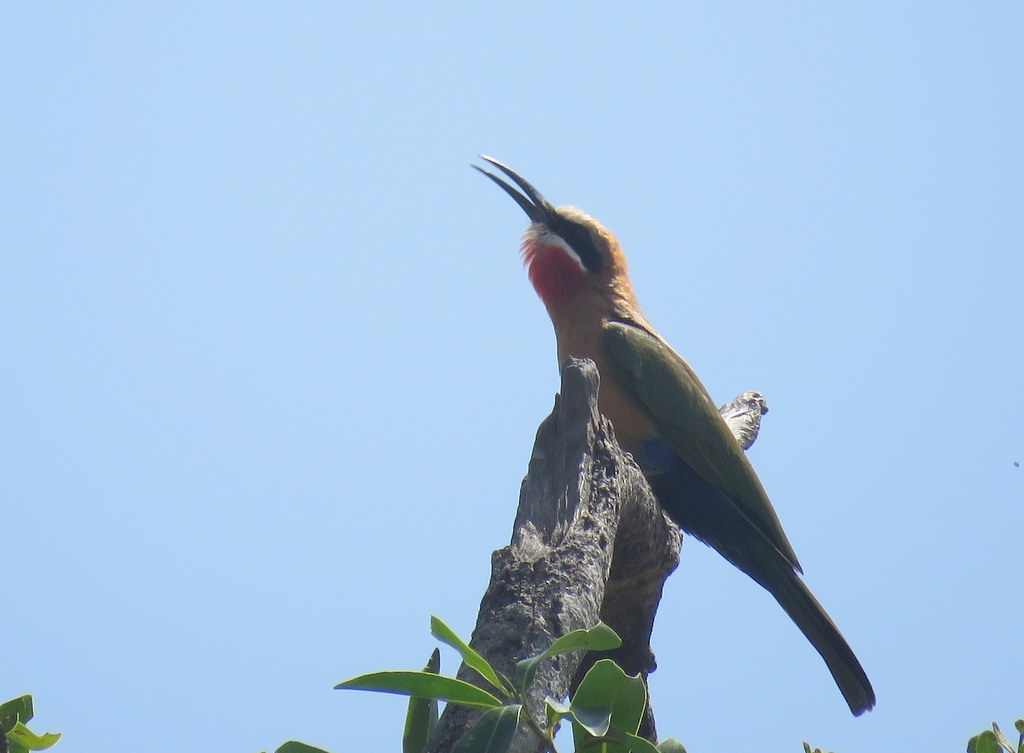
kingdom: Animalia
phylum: Chordata
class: Aves
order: Coraciiformes
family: Meropidae
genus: Merops
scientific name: Merops bullockoides
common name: White-fronted bee-eater
